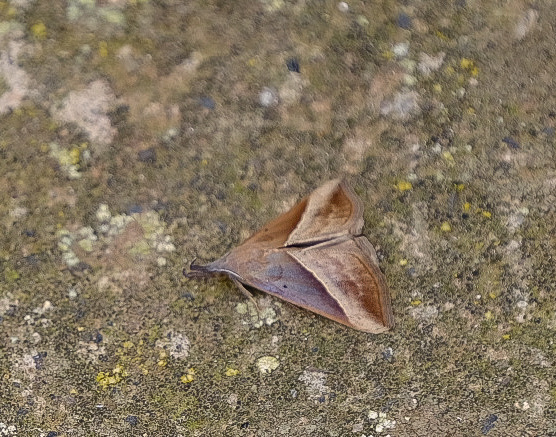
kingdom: Animalia
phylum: Arthropoda
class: Insecta
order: Lepidoptera
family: Erebidae
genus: Hypena
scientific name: Hypena lividalis
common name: Chevron snout
